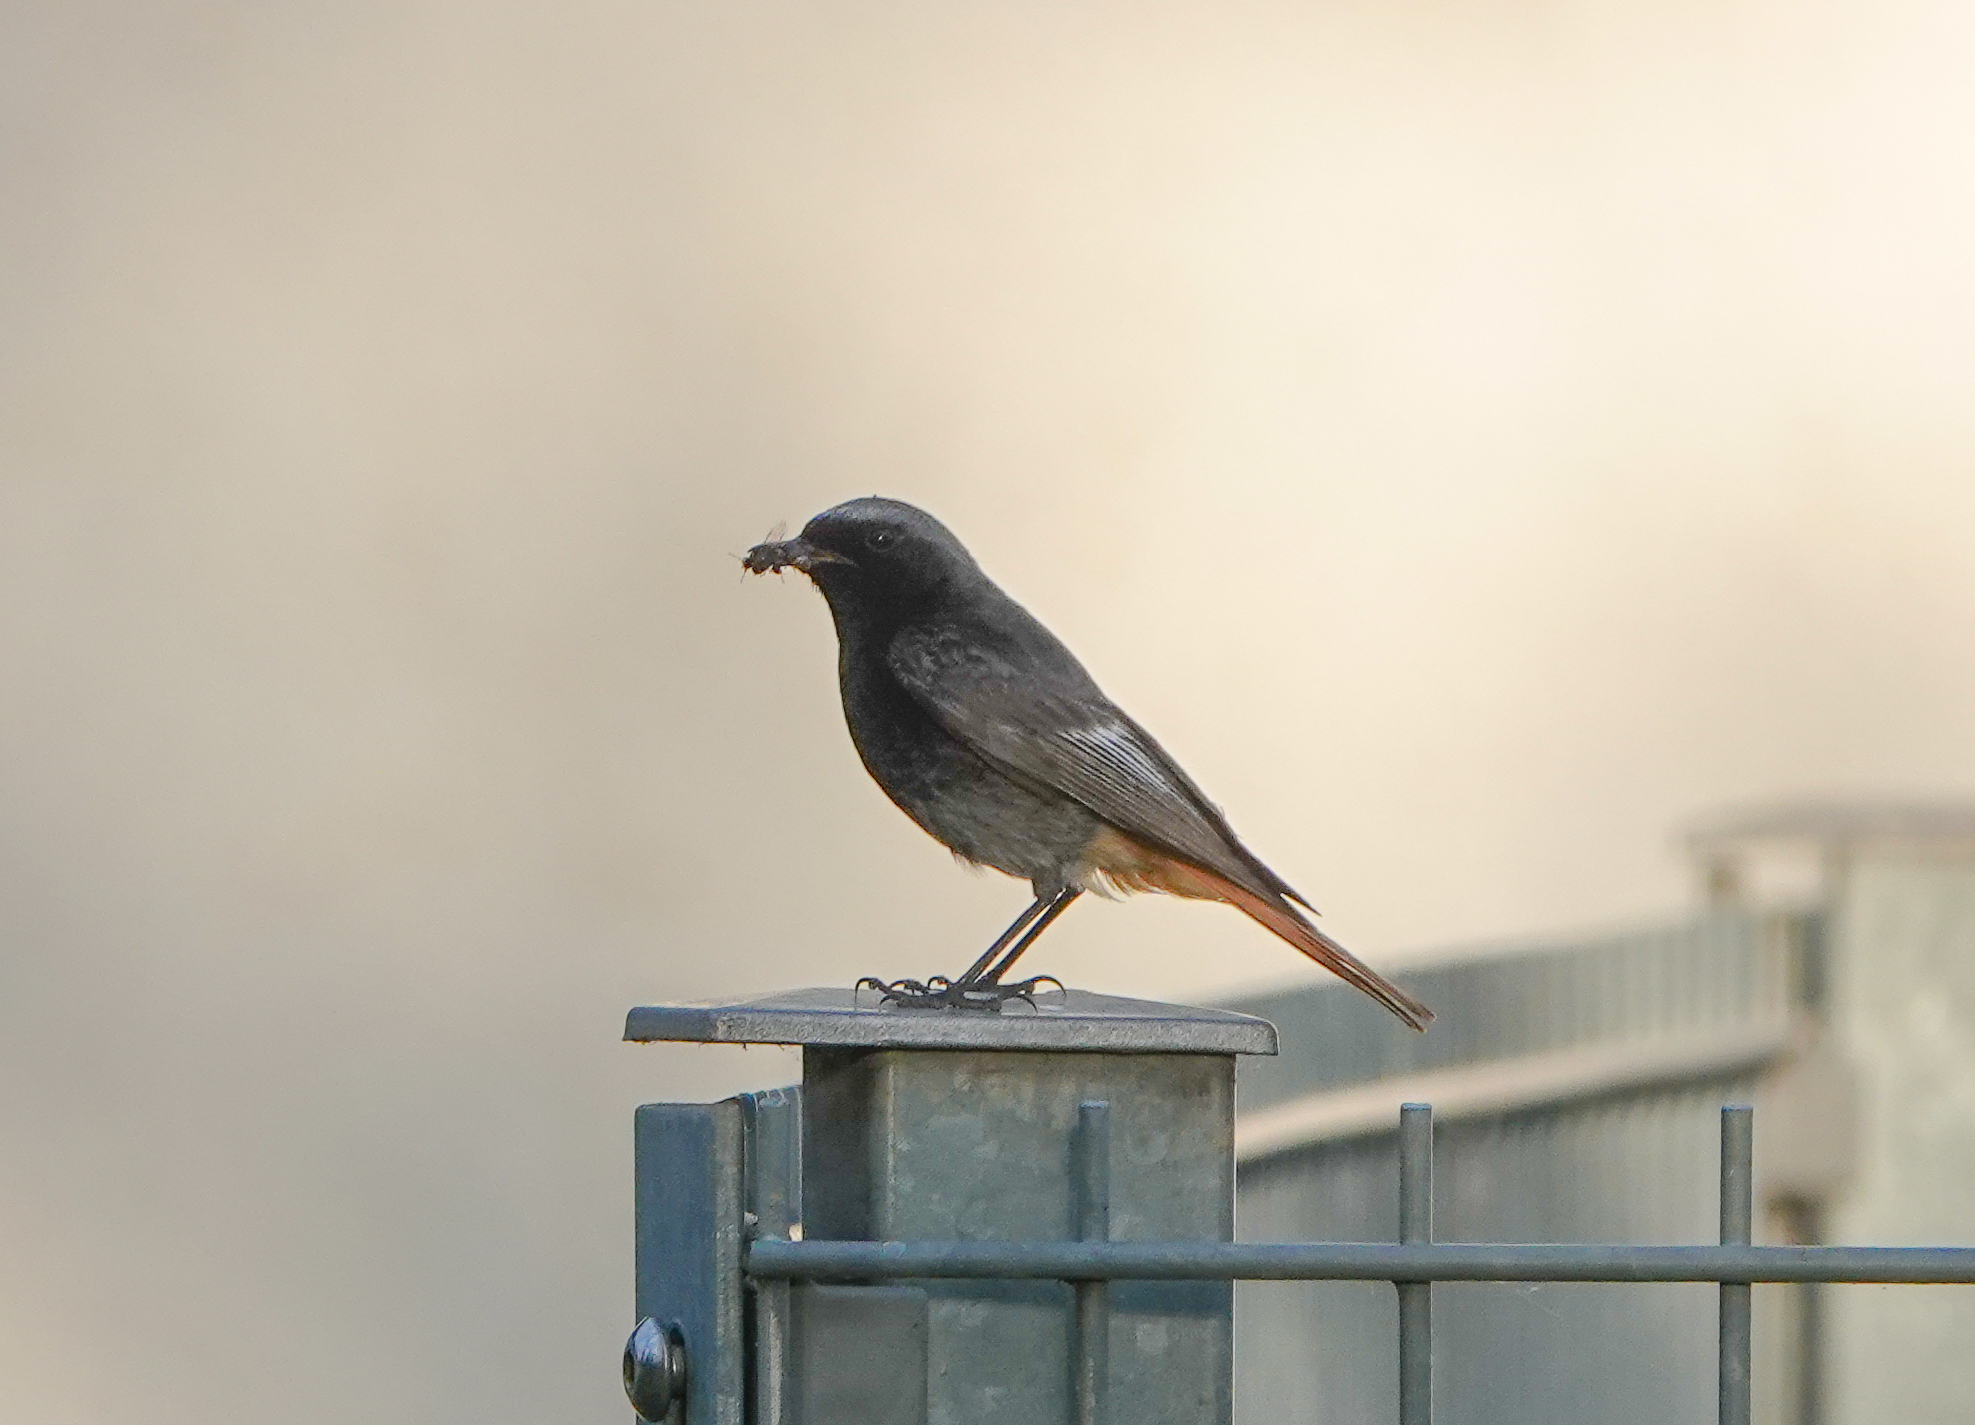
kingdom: Animalia
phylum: Chordata
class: Aves
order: Passeriformes
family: Muscicapidae
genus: Phoenicurus
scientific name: Phoenicurus ochruros
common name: Black redstart
